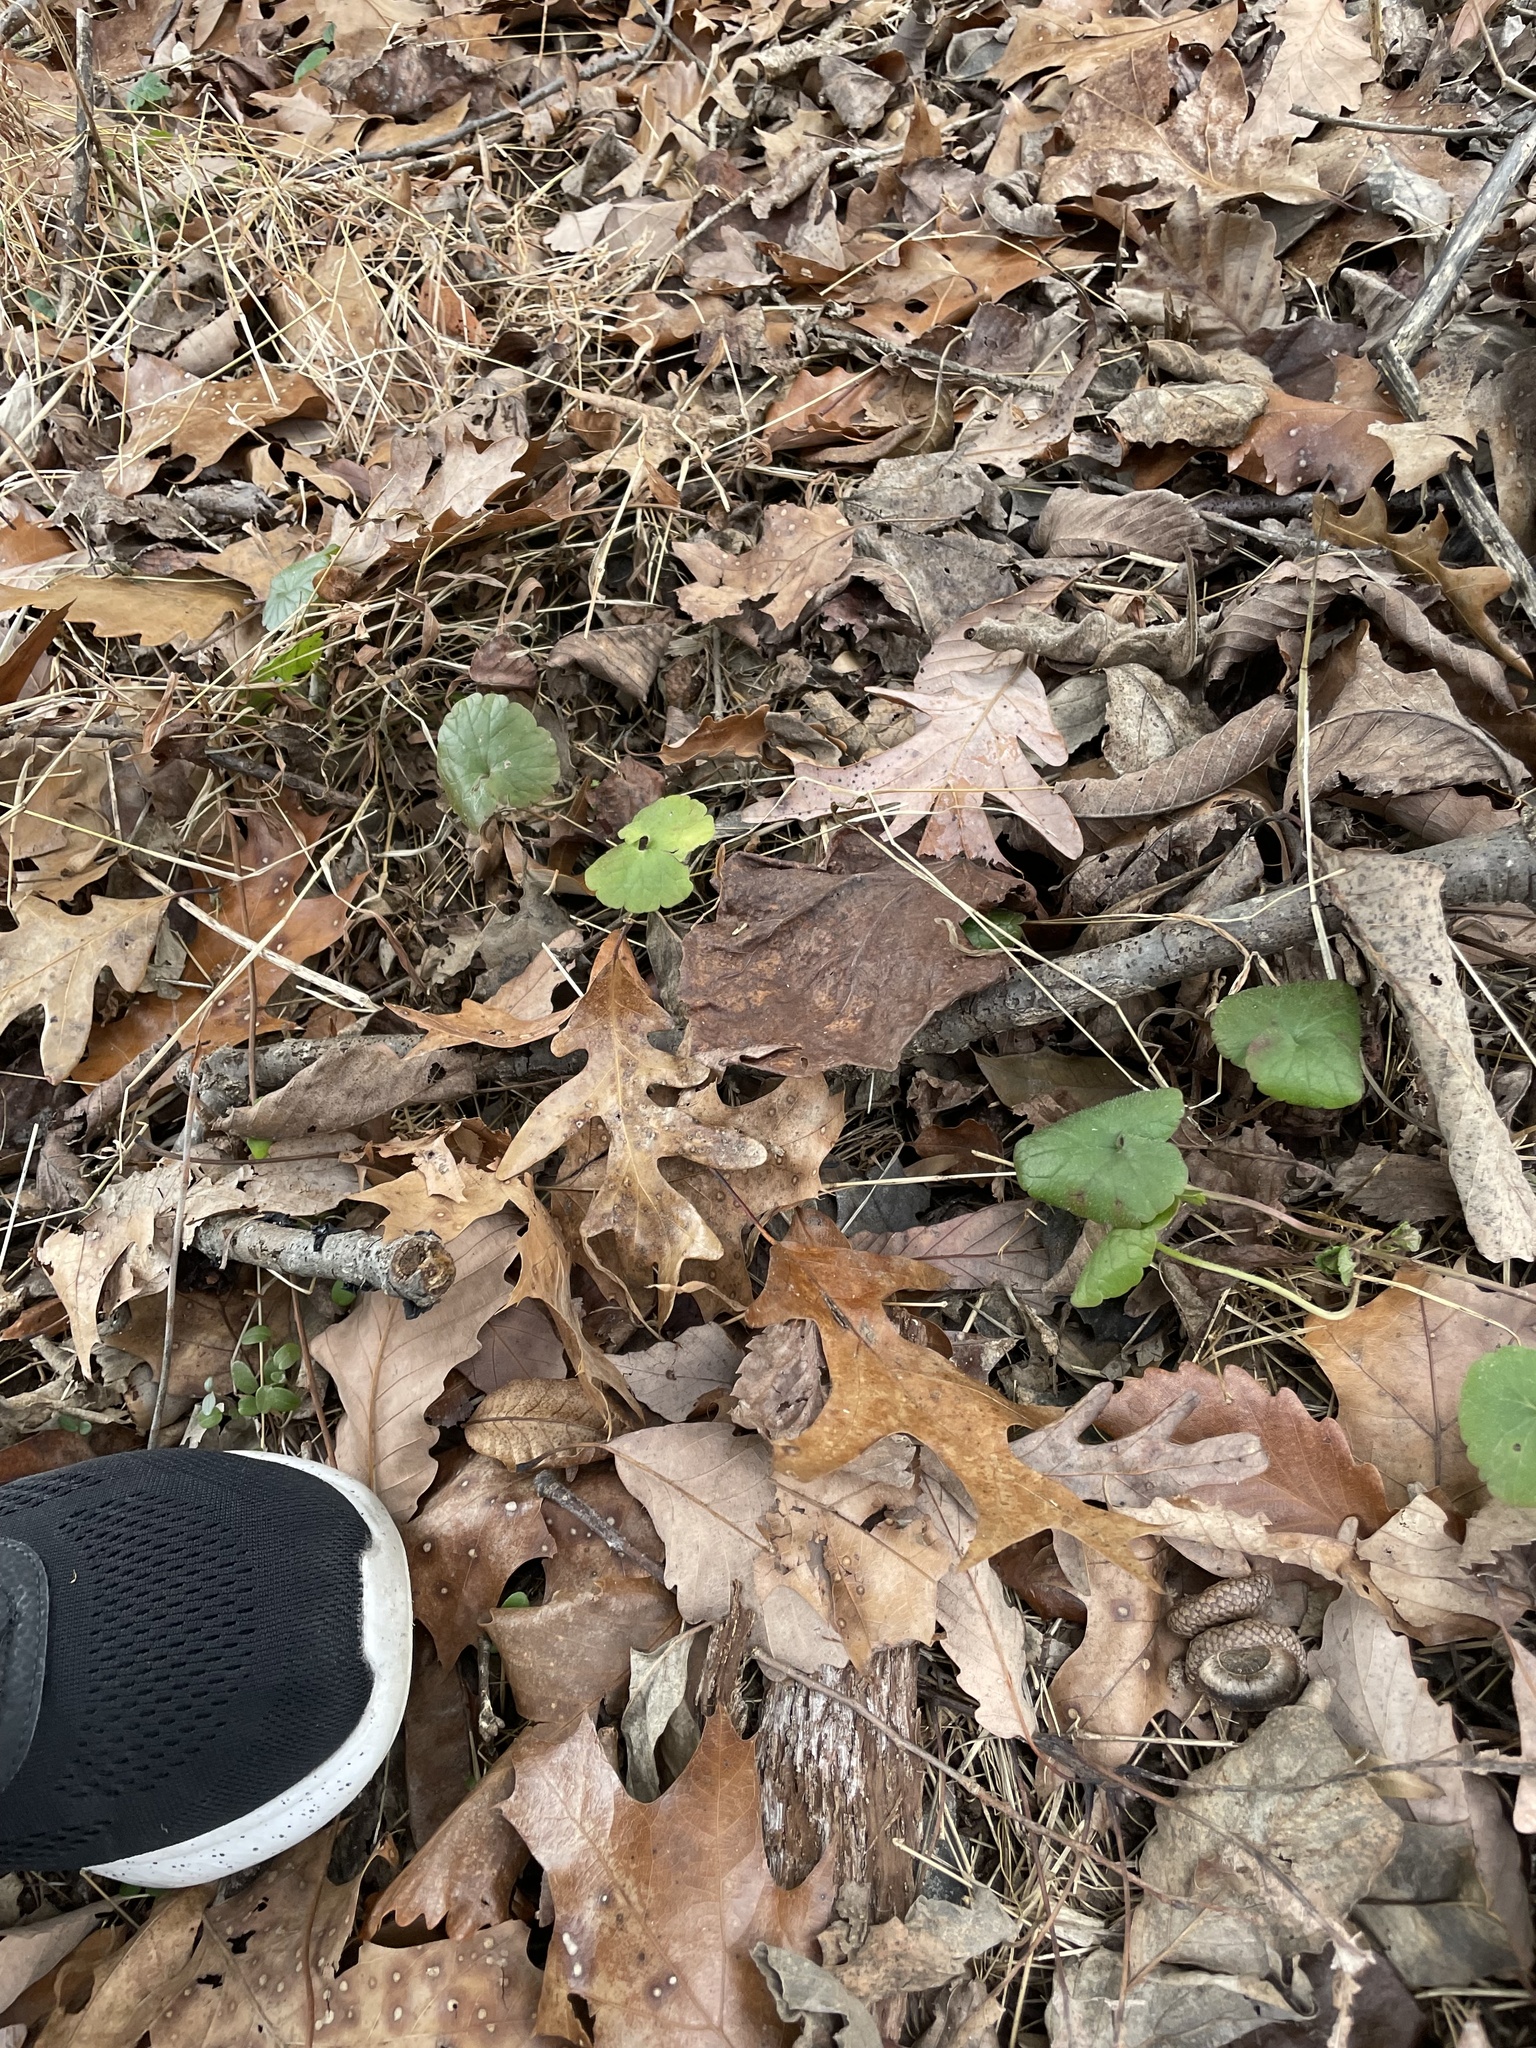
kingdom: Plantae
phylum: Tracheophyta
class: Magnoliopsida
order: Lamiales
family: Lamiaceae
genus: Glechoma
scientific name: Glechoma hederacea
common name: Ground ivy
